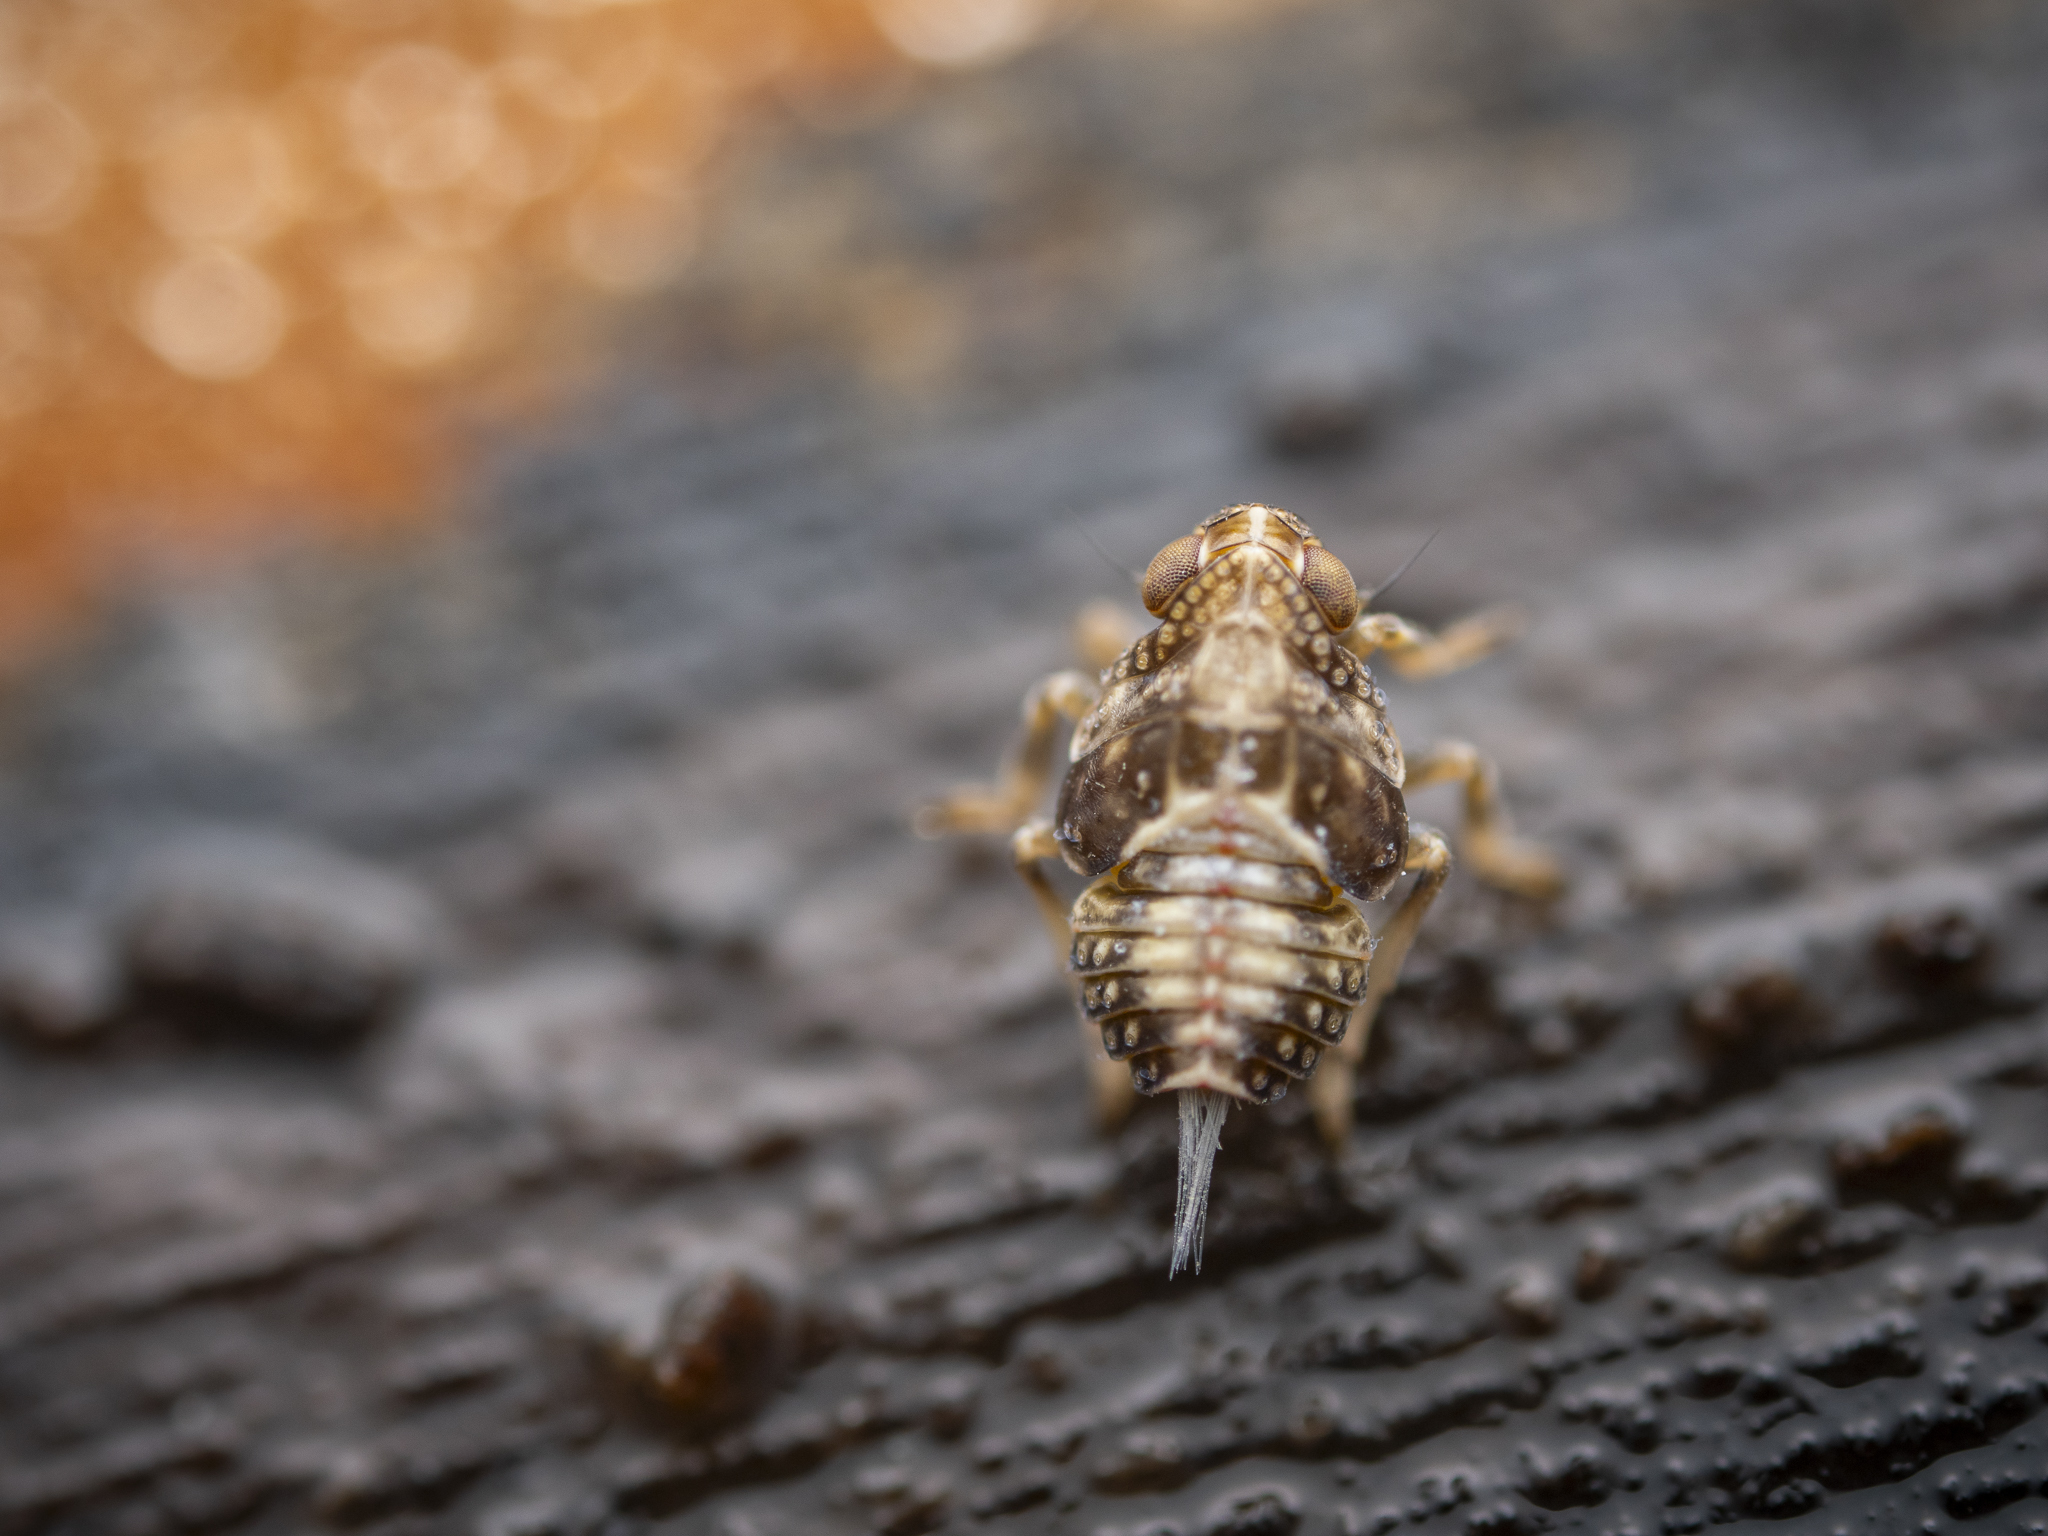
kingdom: Animalia
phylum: Arthropoda
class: Insecta
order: Hemiptera
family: Issidae
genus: Issus
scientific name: Issus coleoptratus
